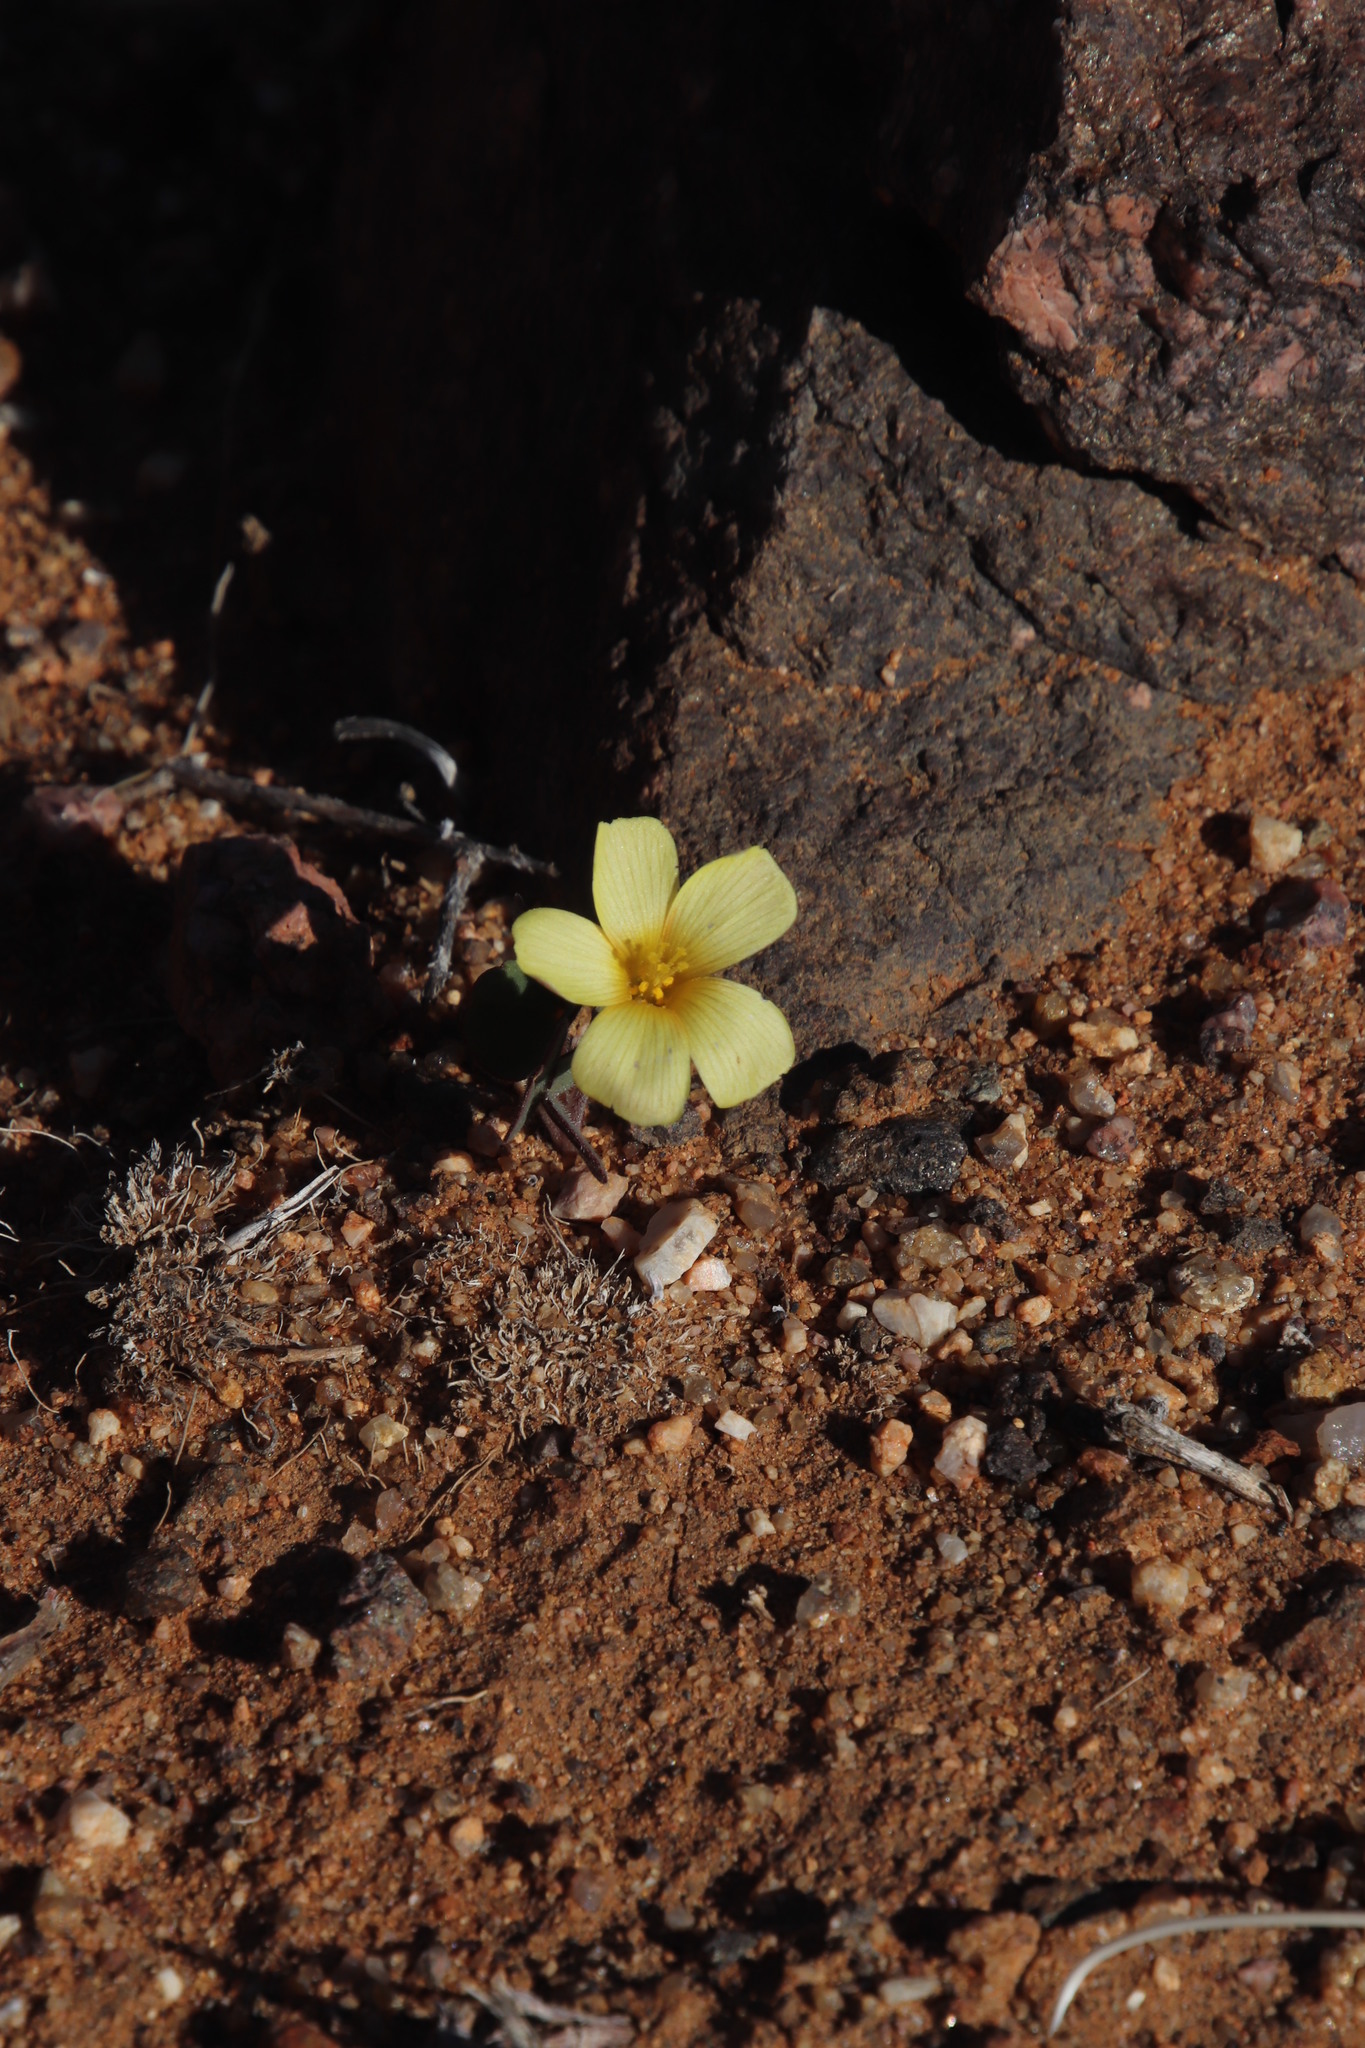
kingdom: Plantae
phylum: Tracheophyta
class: Magnoliopsida
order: Oxalidales
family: Oxalidaceae
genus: Oxalis
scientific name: Oxalis obtusa
